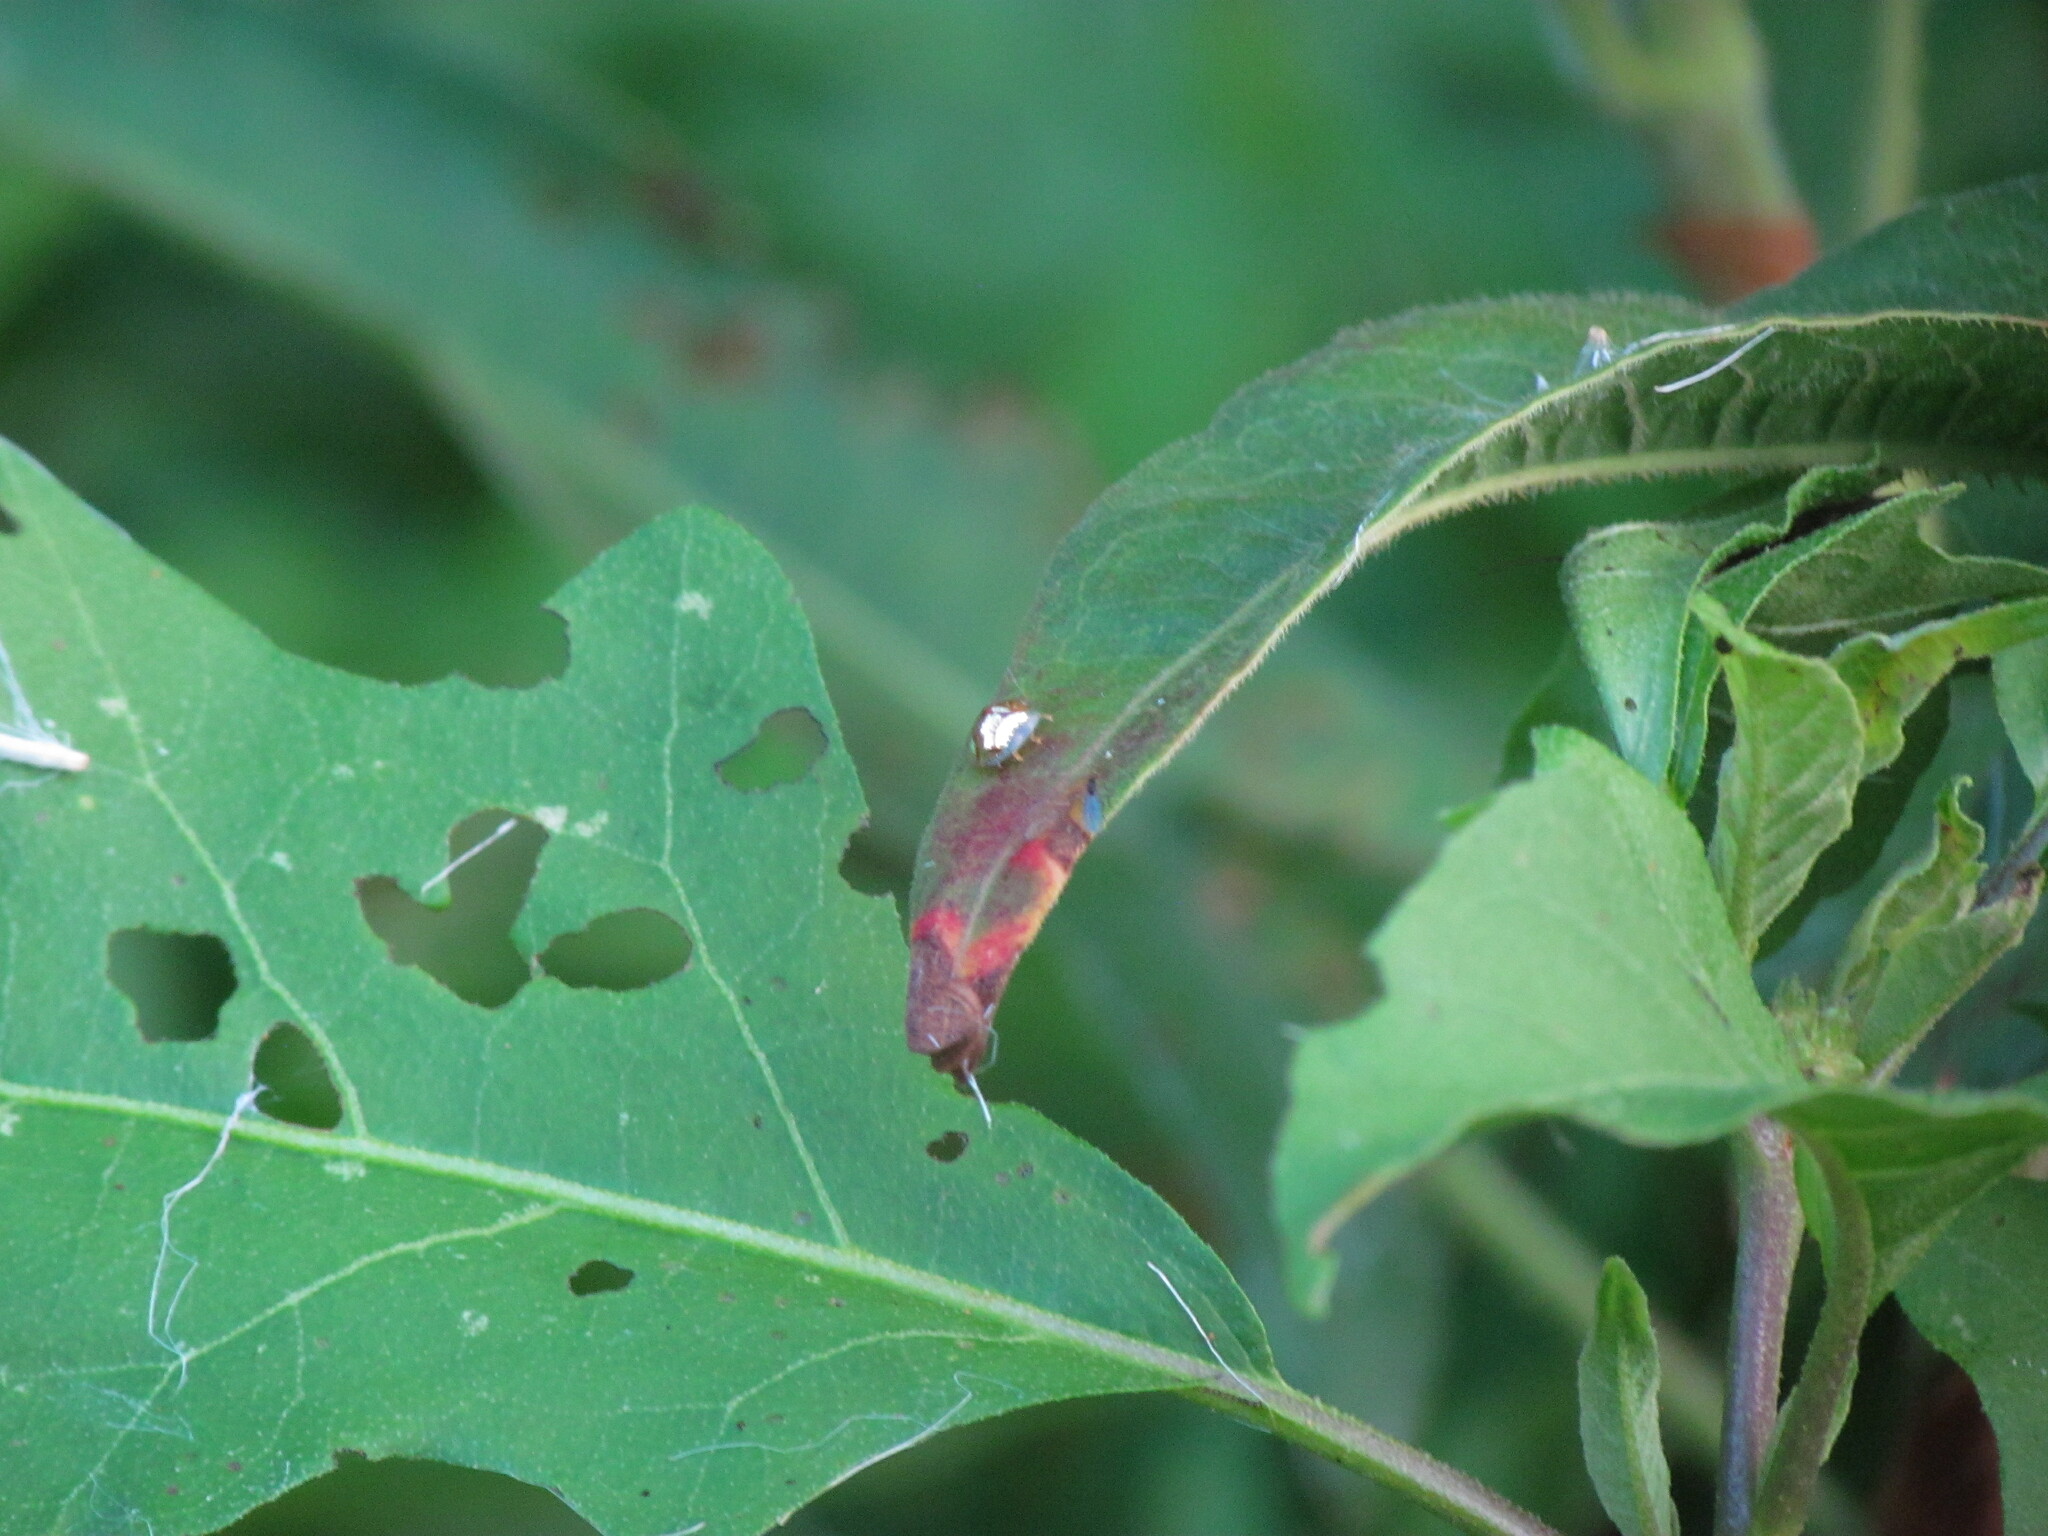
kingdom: Animalia
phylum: Arthropoda
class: Insecta
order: Coleoptera
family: Chrysomelidae
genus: Charidotella
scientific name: Charidotella sexpunctata
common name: Golden tortoise beetle
